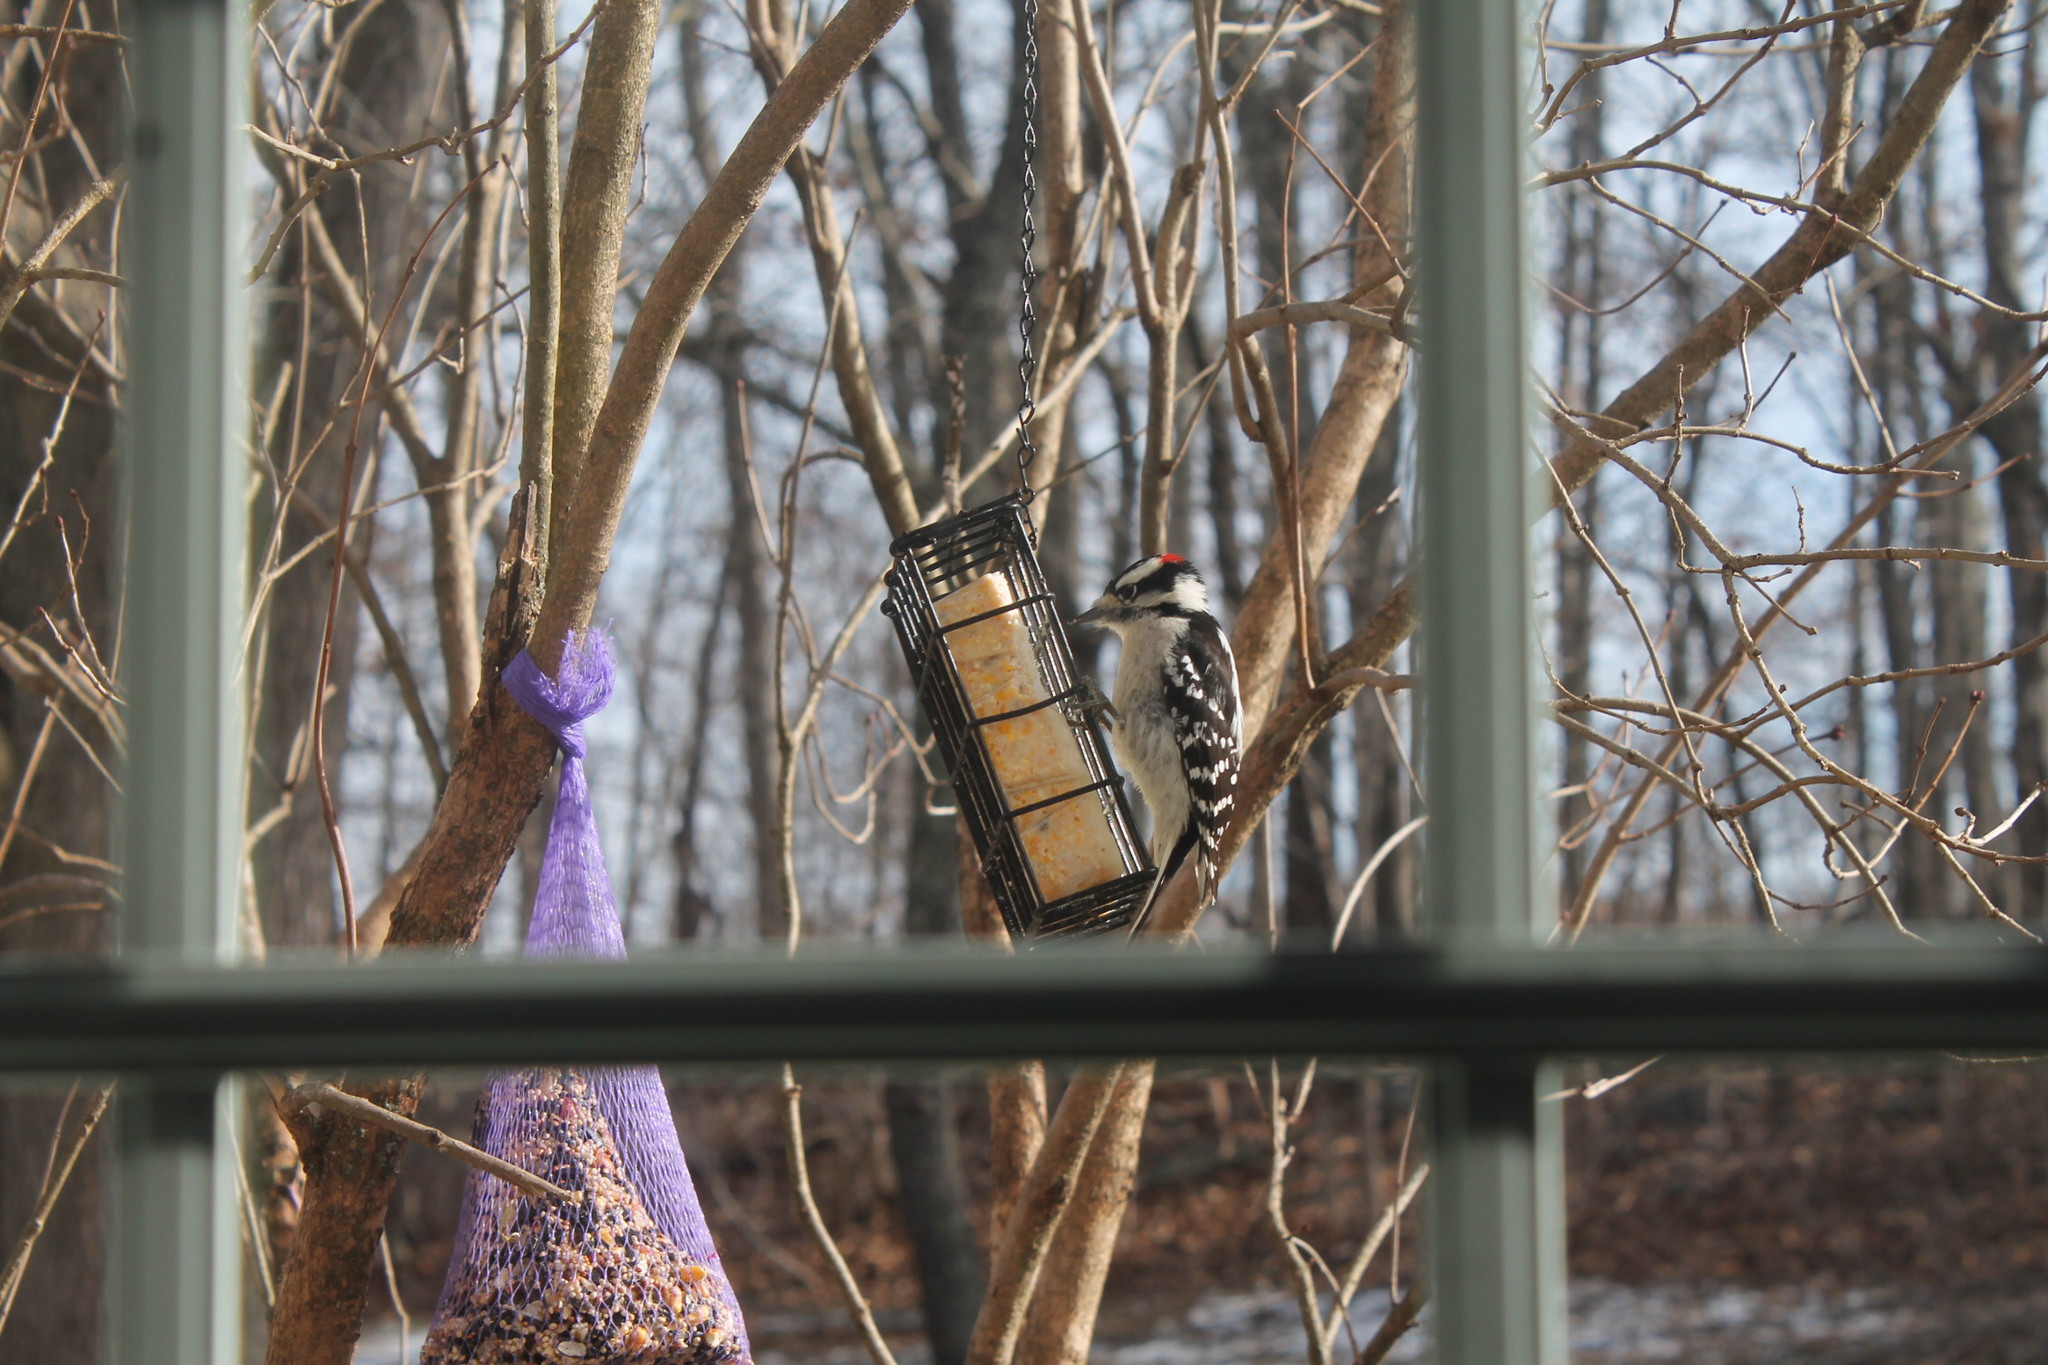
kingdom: Animalia
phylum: Chordata
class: Aves
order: Piciformes
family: Picidae
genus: Dryobates
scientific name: Dryobates pubescens
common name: Downy woodpecker
